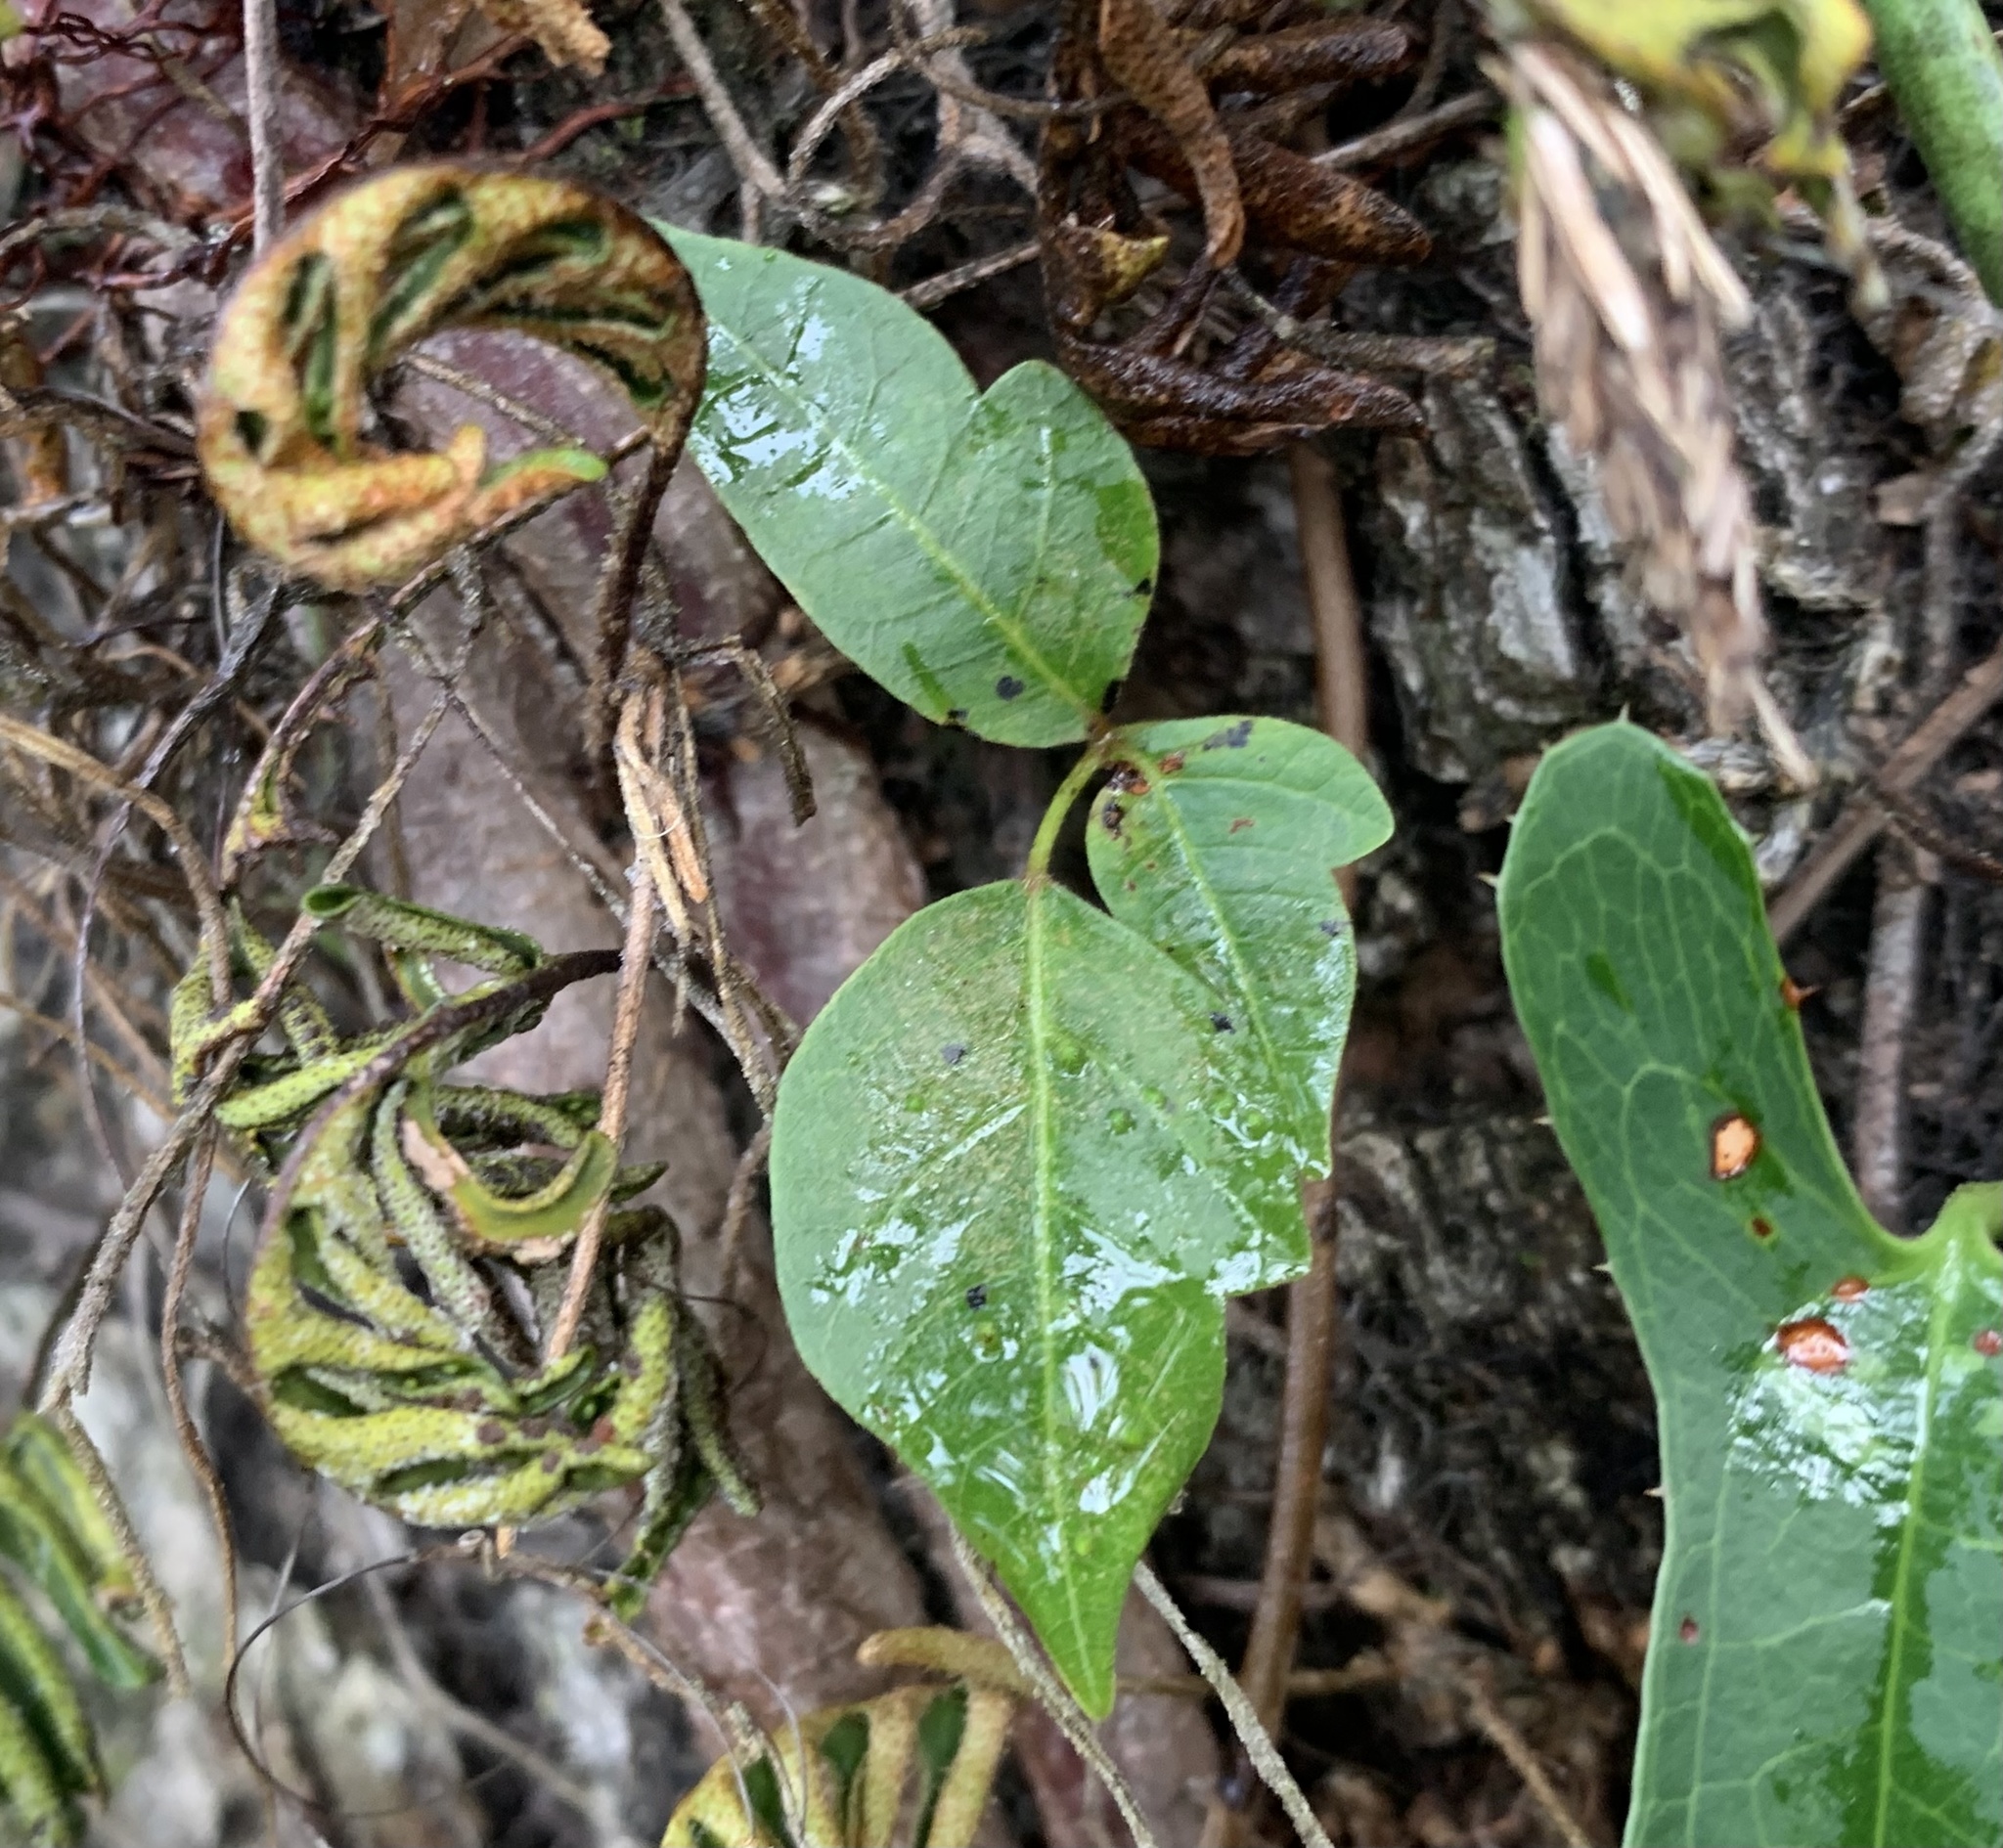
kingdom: Plantae
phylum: Tracheophyta
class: Magnoliopsida
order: Sapindales
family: Anacardiaceae
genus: Toxicodendron
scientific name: Toxicodendron radicans
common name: Poison ivy
